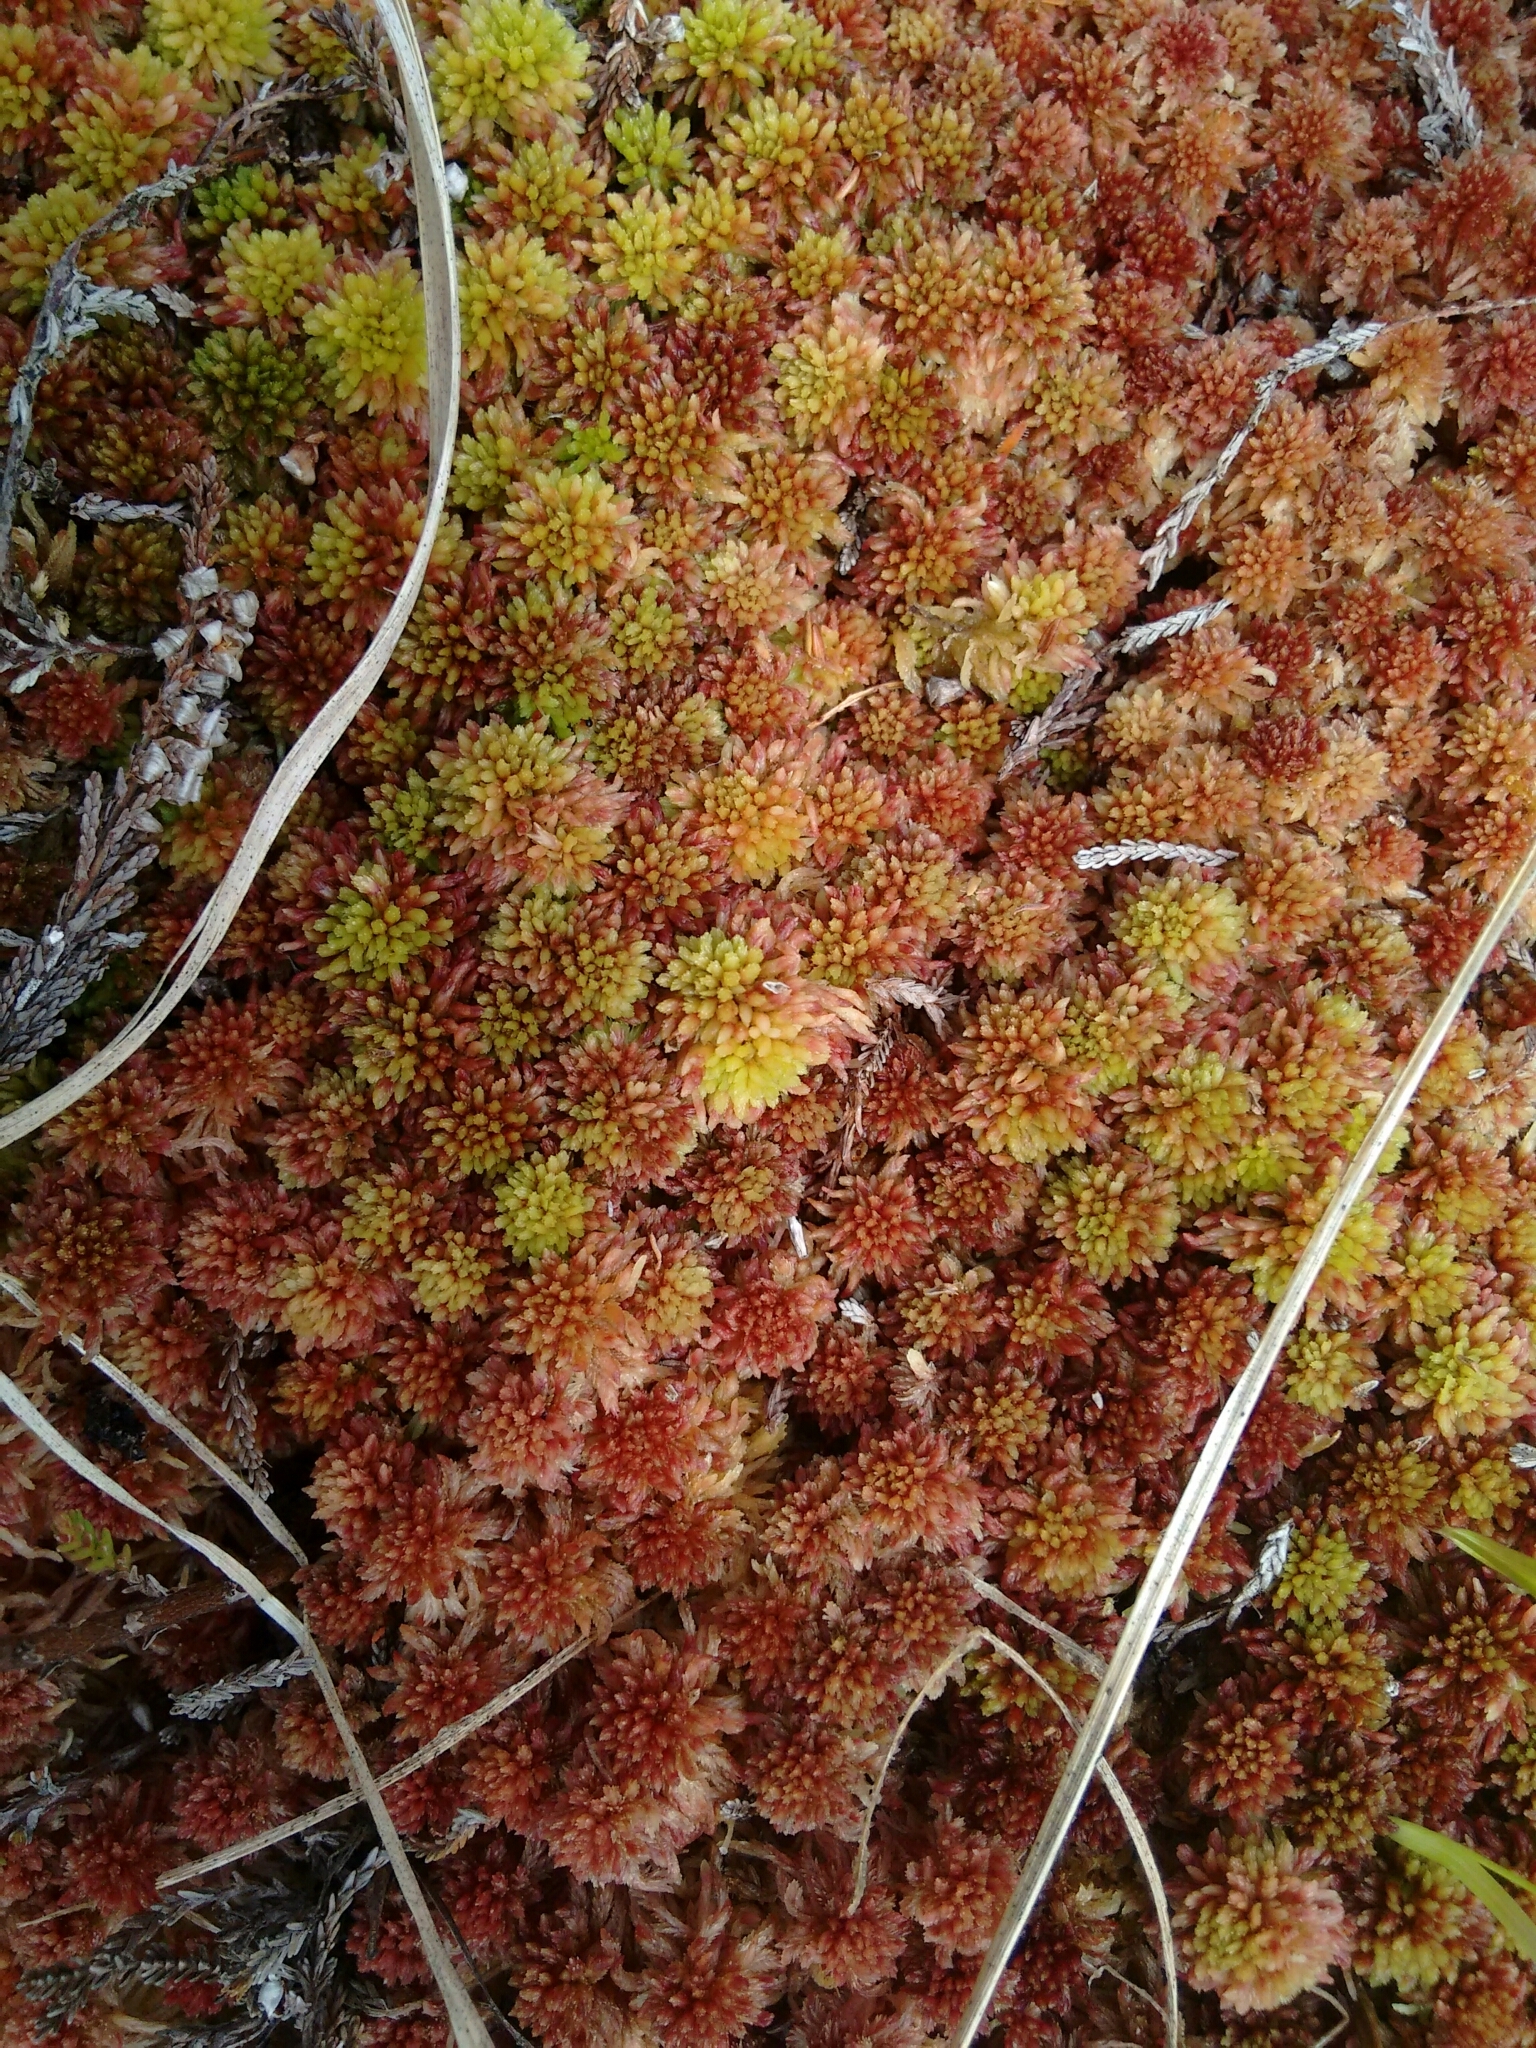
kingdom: Plantae
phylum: Bryophyta
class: Sphagnopsida
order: Sphagnales
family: Sphagnaceae
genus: Sphagnum
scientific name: Sphagnum capillifolium
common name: Small red peat moss
